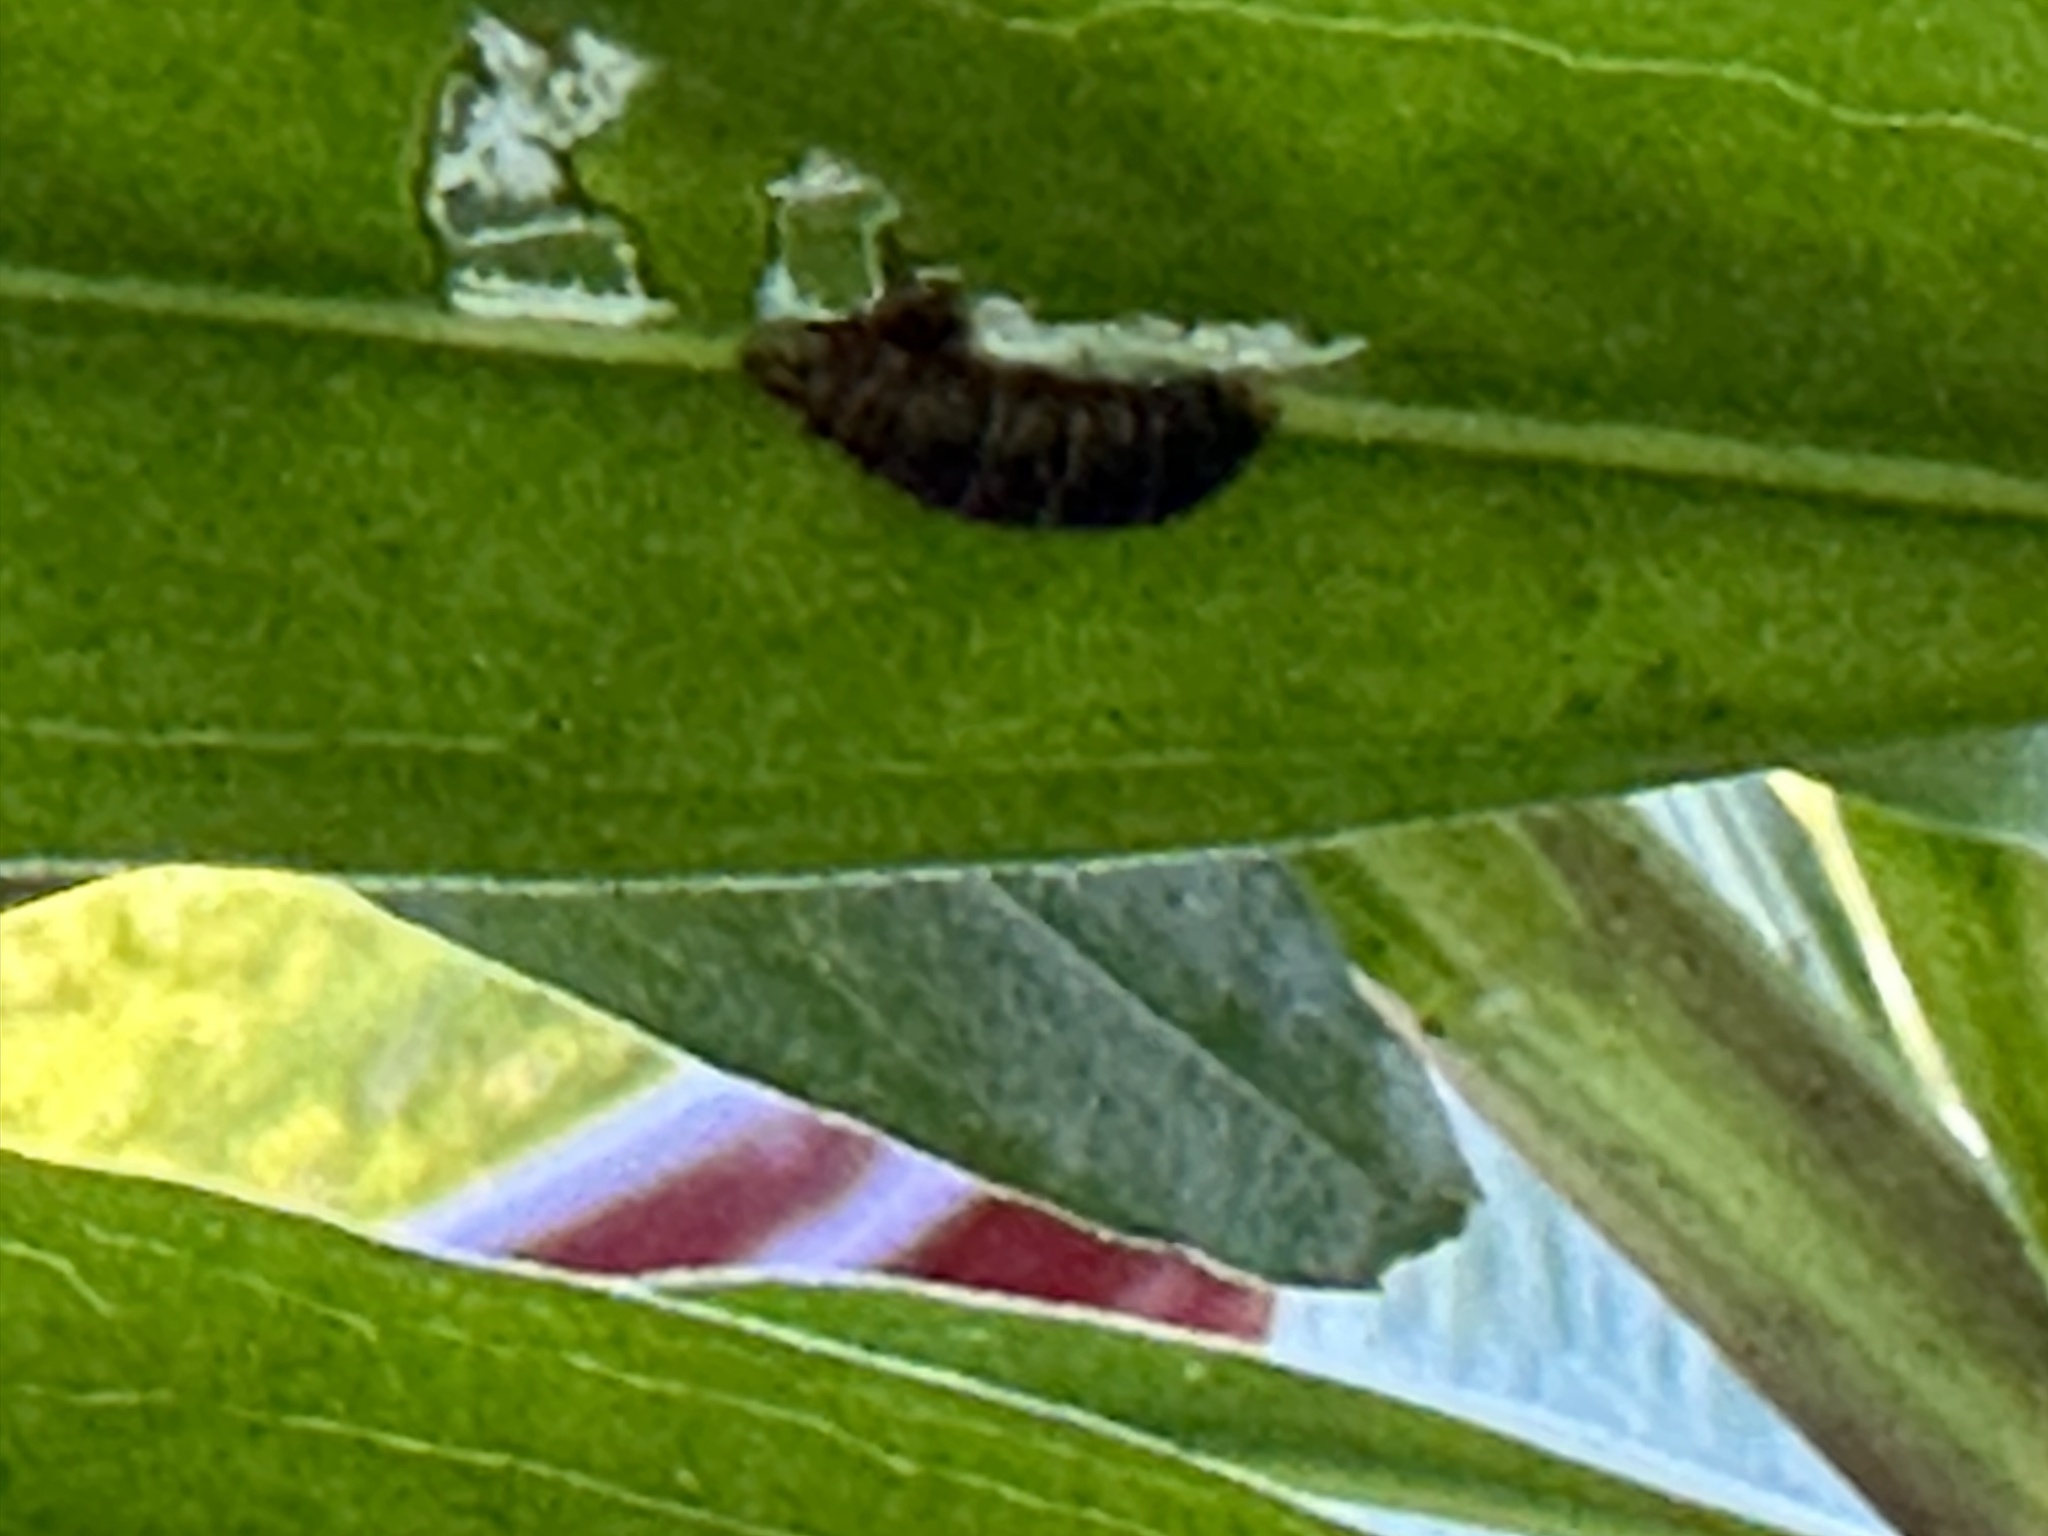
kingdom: Animalia
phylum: Arthropoda
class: Insecta
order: Lepidoptera
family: Papilionidae
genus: Protographium
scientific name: Protographium marcellus
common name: Zebra swallowtail
